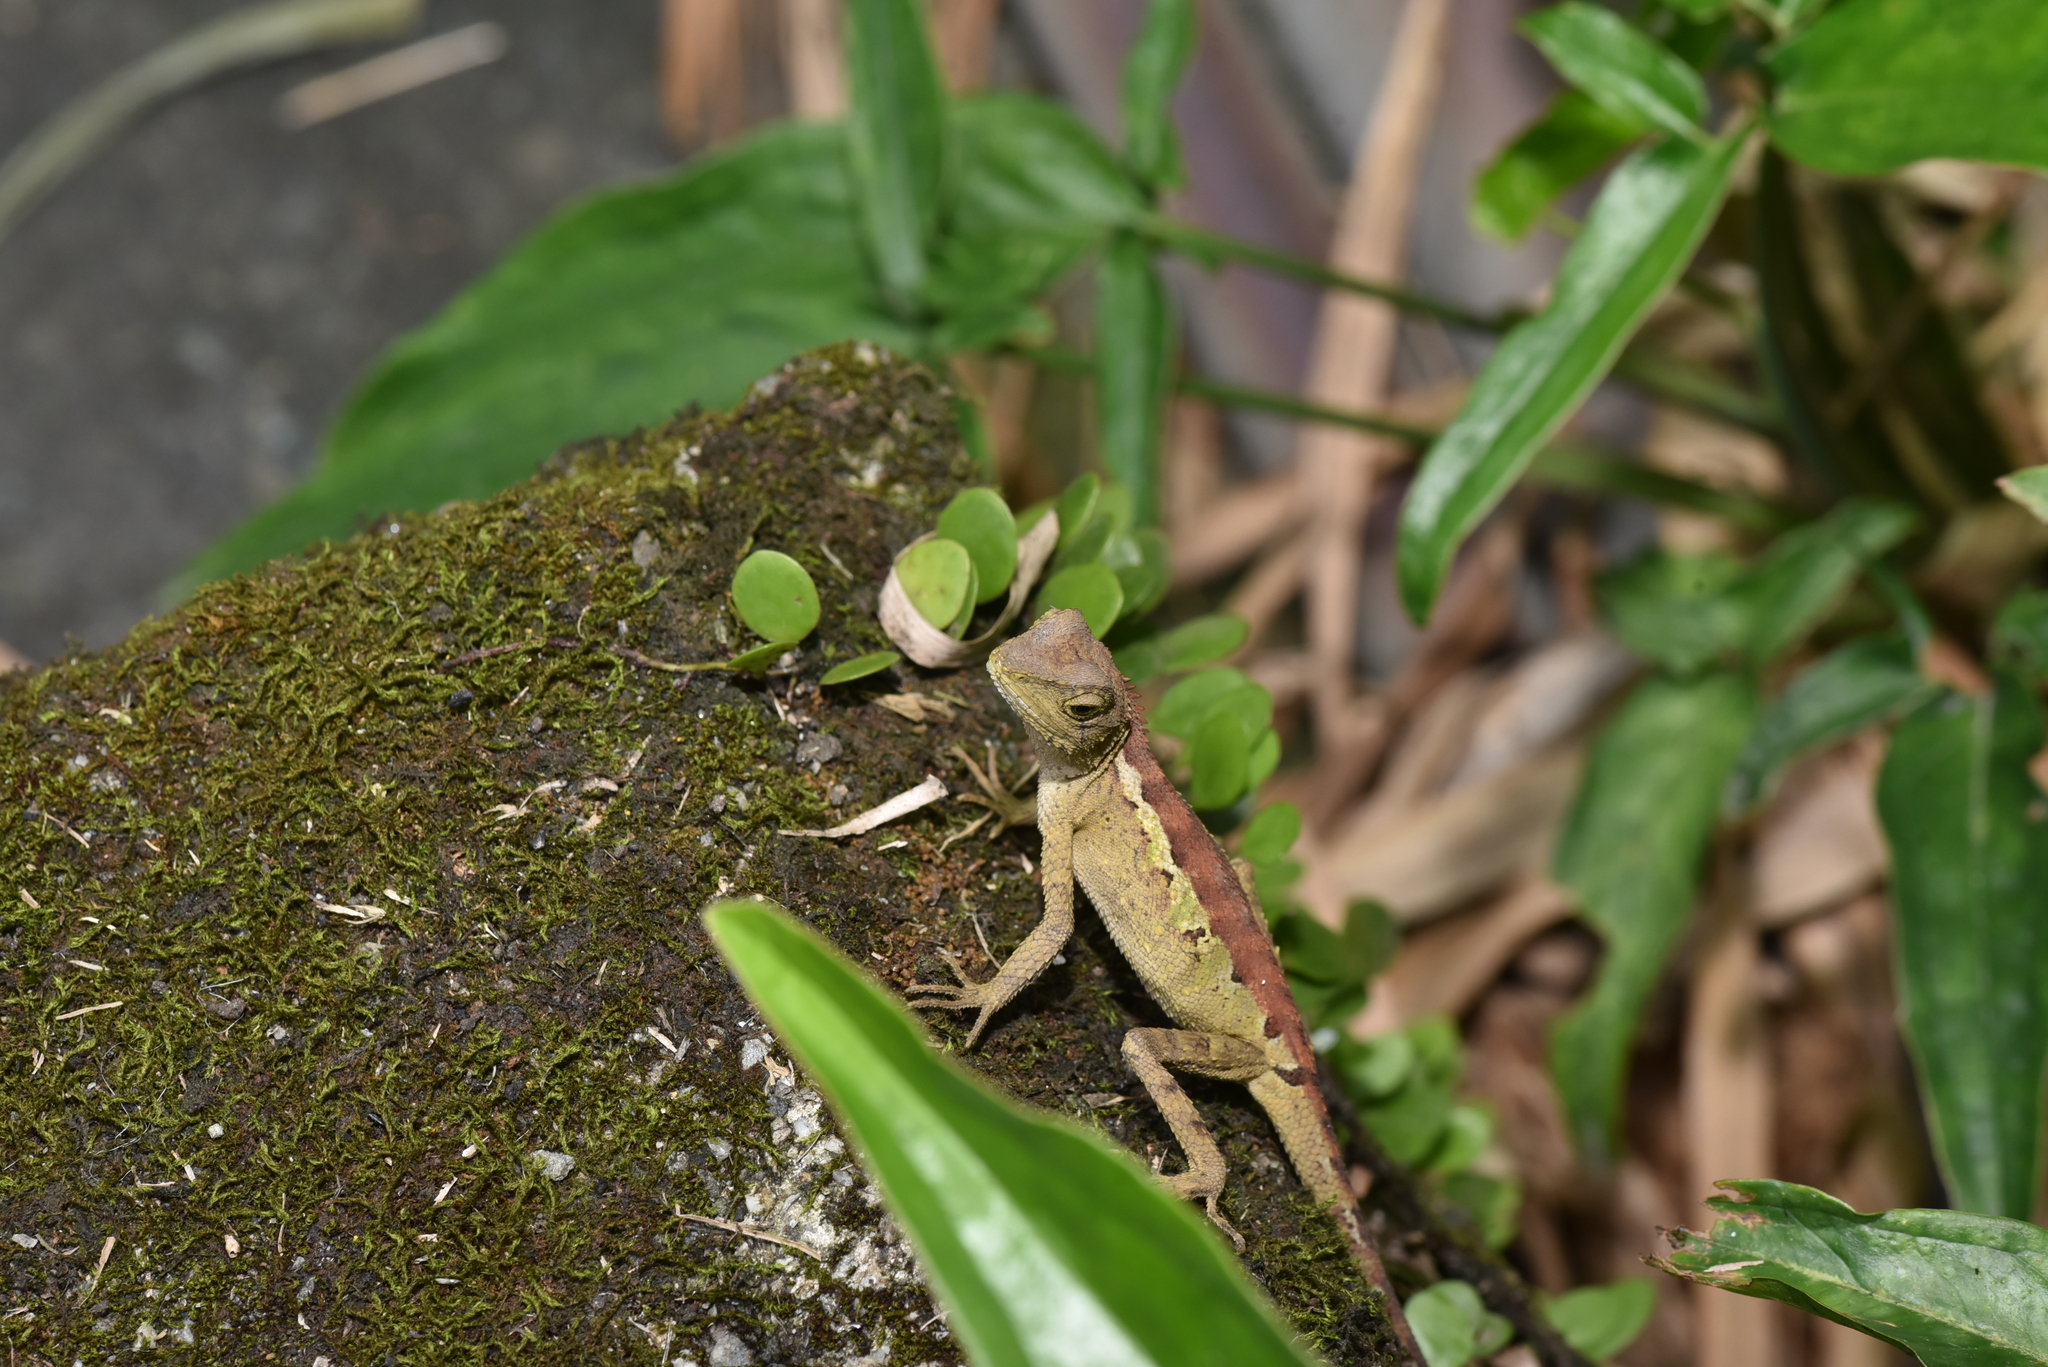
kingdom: Animalia
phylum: Chordata
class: Squamata
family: Agamidae
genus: Diploderma
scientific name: Diploderma swinhonis
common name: Taiwan japalure
